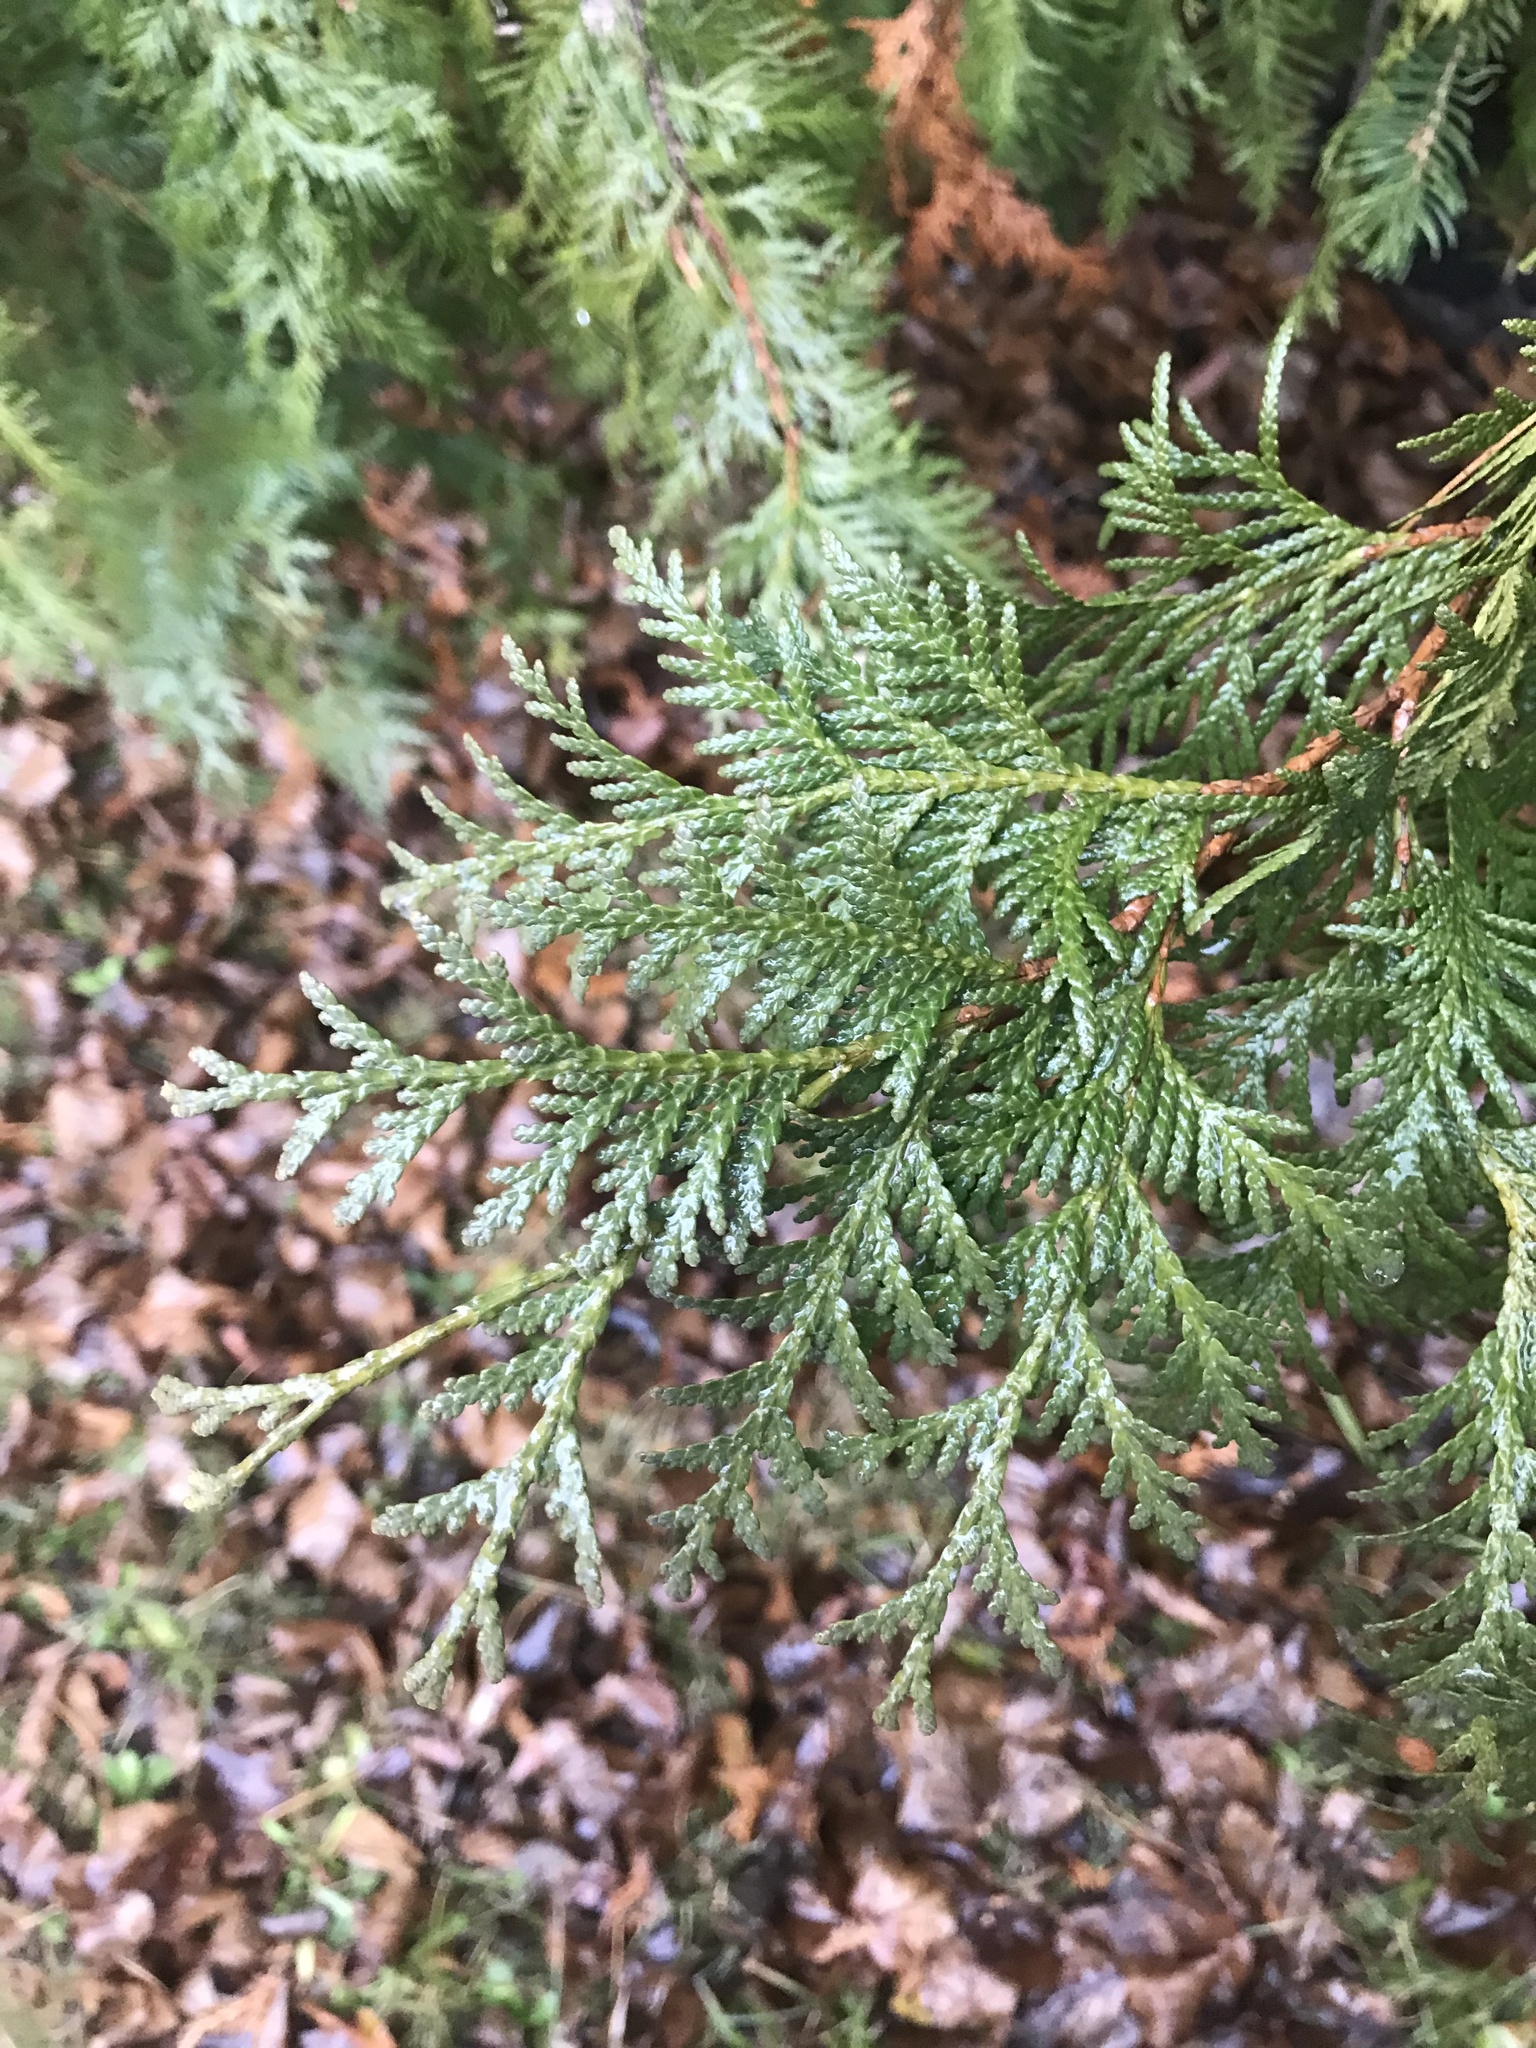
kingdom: Plantae
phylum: Tracheophyta
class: Pinopsida
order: Pinales
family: Cupressaceae
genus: Thuja
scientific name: Thuja occidentalis
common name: Northern white-cedar
